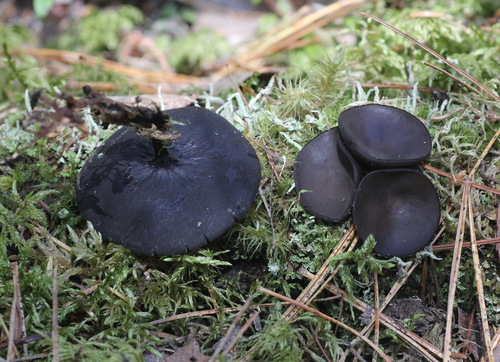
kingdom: Fungi
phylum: Ascomycota
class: Pezizomycetes
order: Pezizales
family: Sarcosomataceae
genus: Pseudoplectania
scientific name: Pseudoplectania melaena
